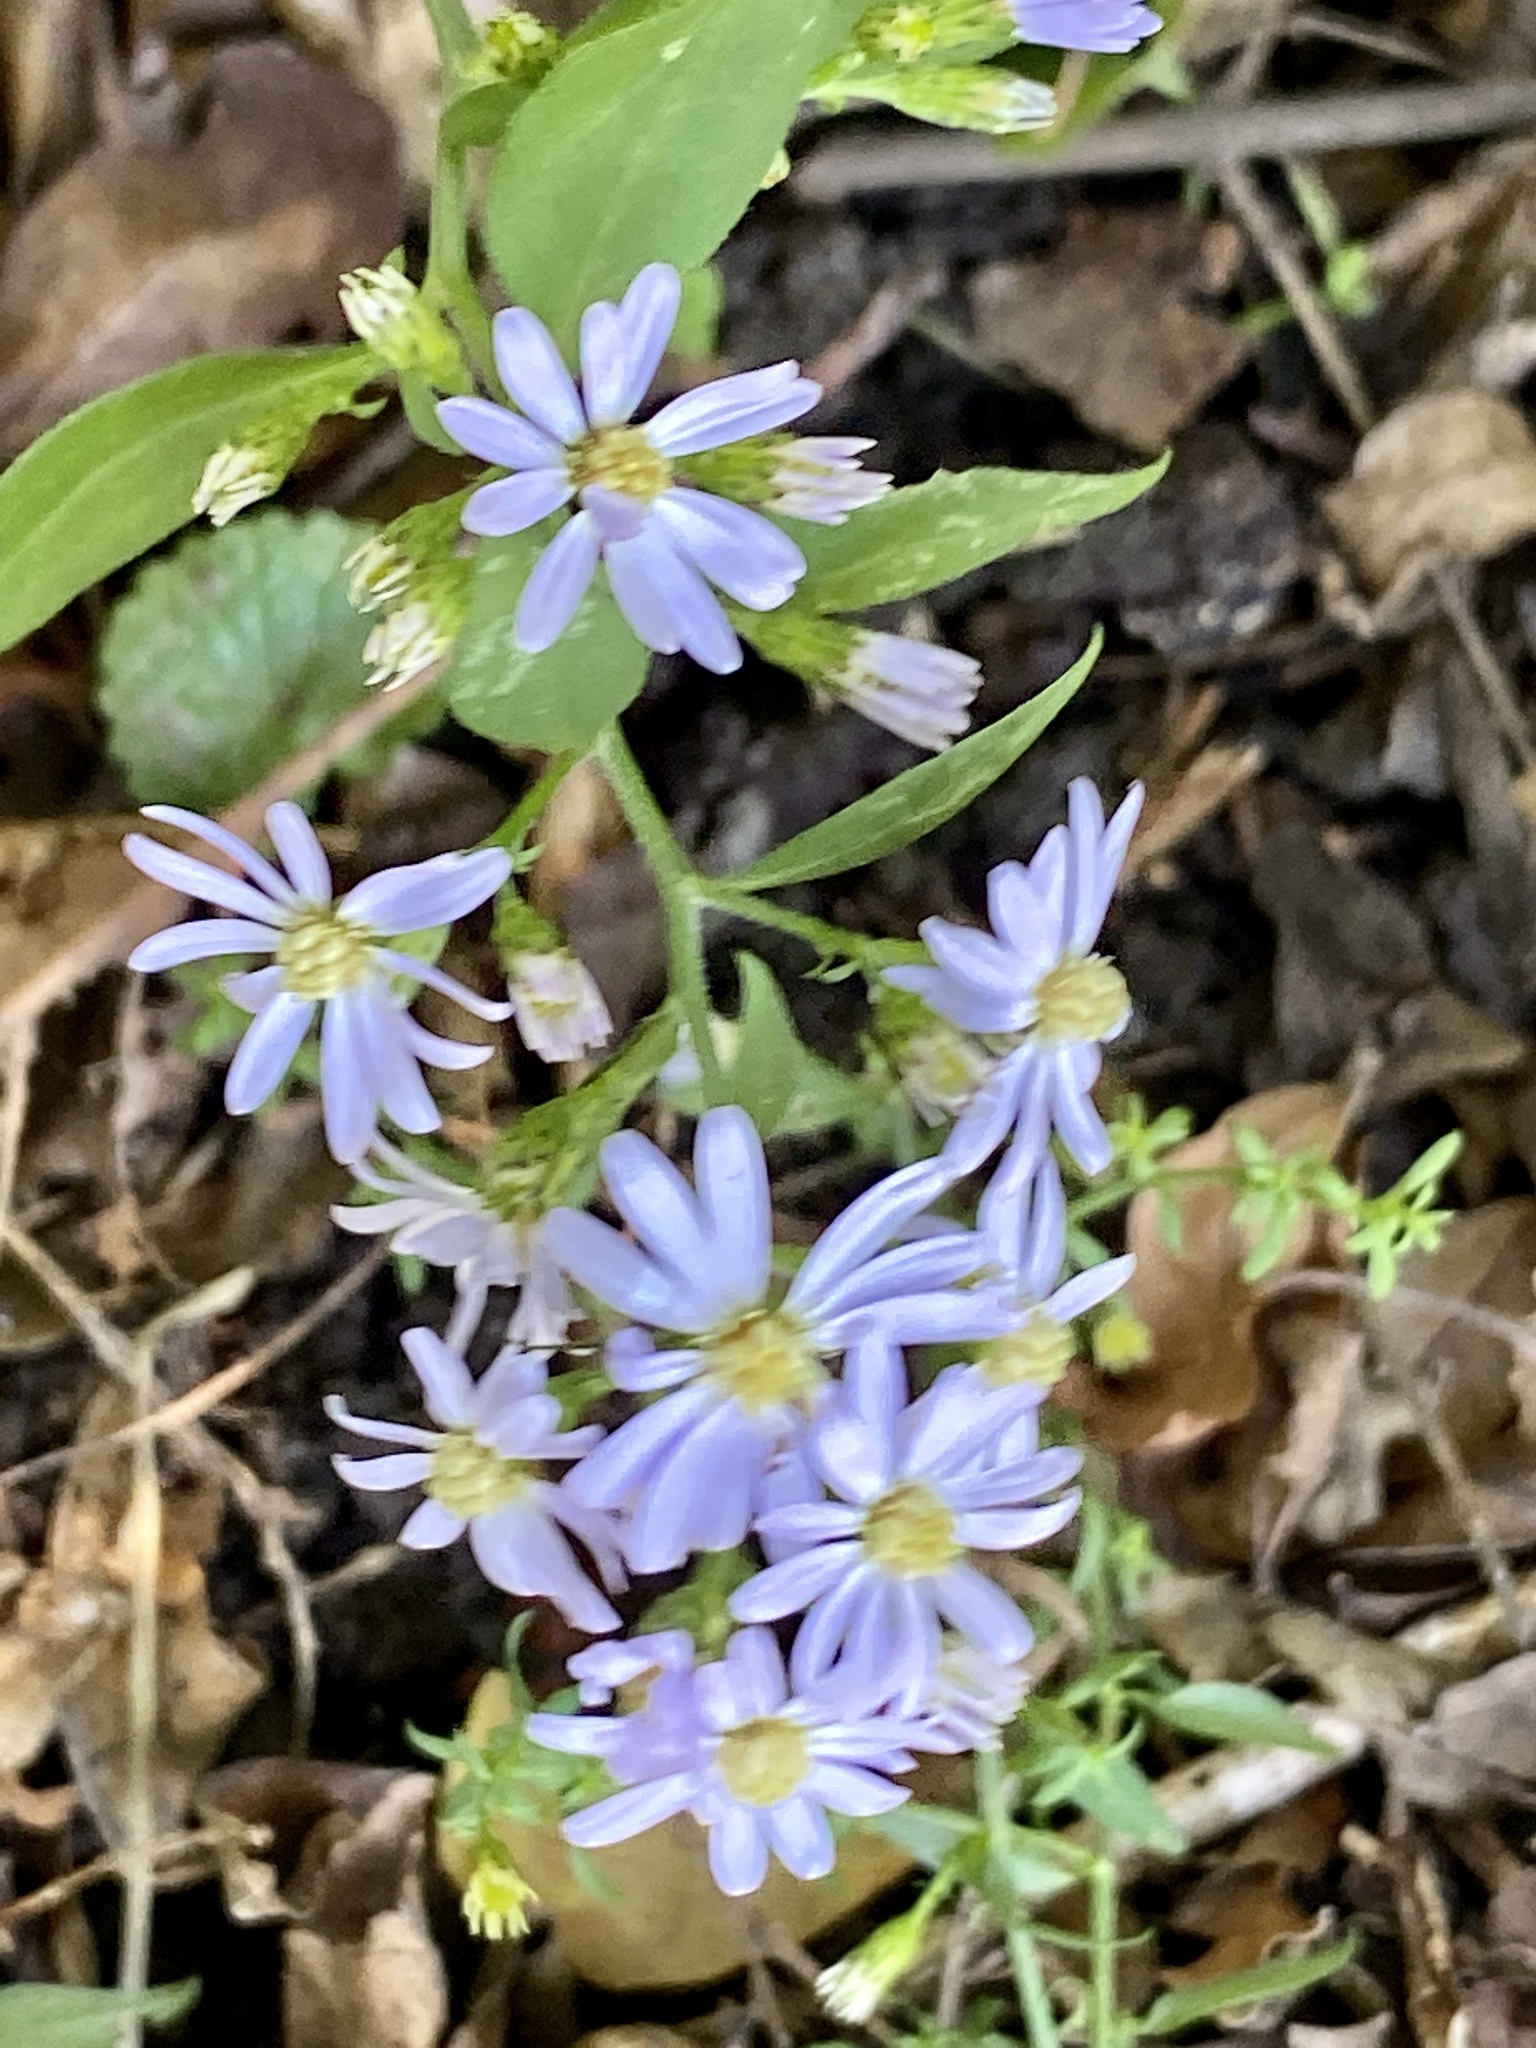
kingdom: Plantae
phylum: Tracheophyta
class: Magnoliopsida
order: Asterales
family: Asteraceae
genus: Symphyotrichum
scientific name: Symphyotrichum cordifolium
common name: Beeweed
